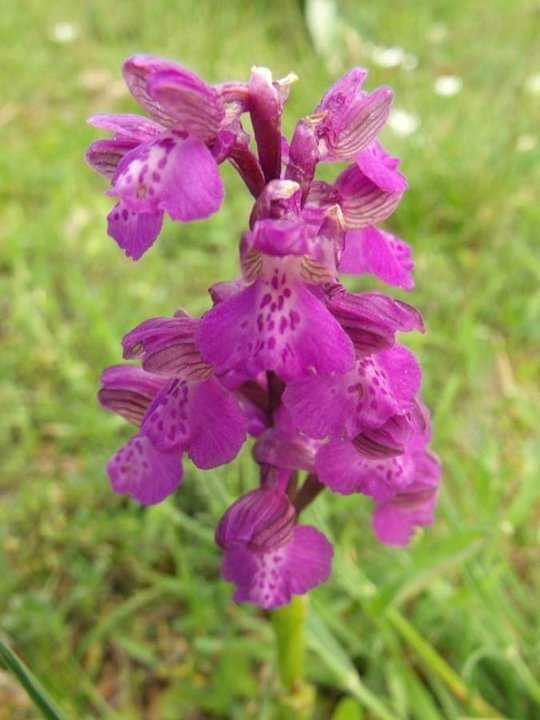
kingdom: Plantae
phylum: Tracheophyta
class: Liliopsida
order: Asparagales
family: Orchidaceae
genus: Anacamptis
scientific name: Anacamptis morio
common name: Green-winged orchid
